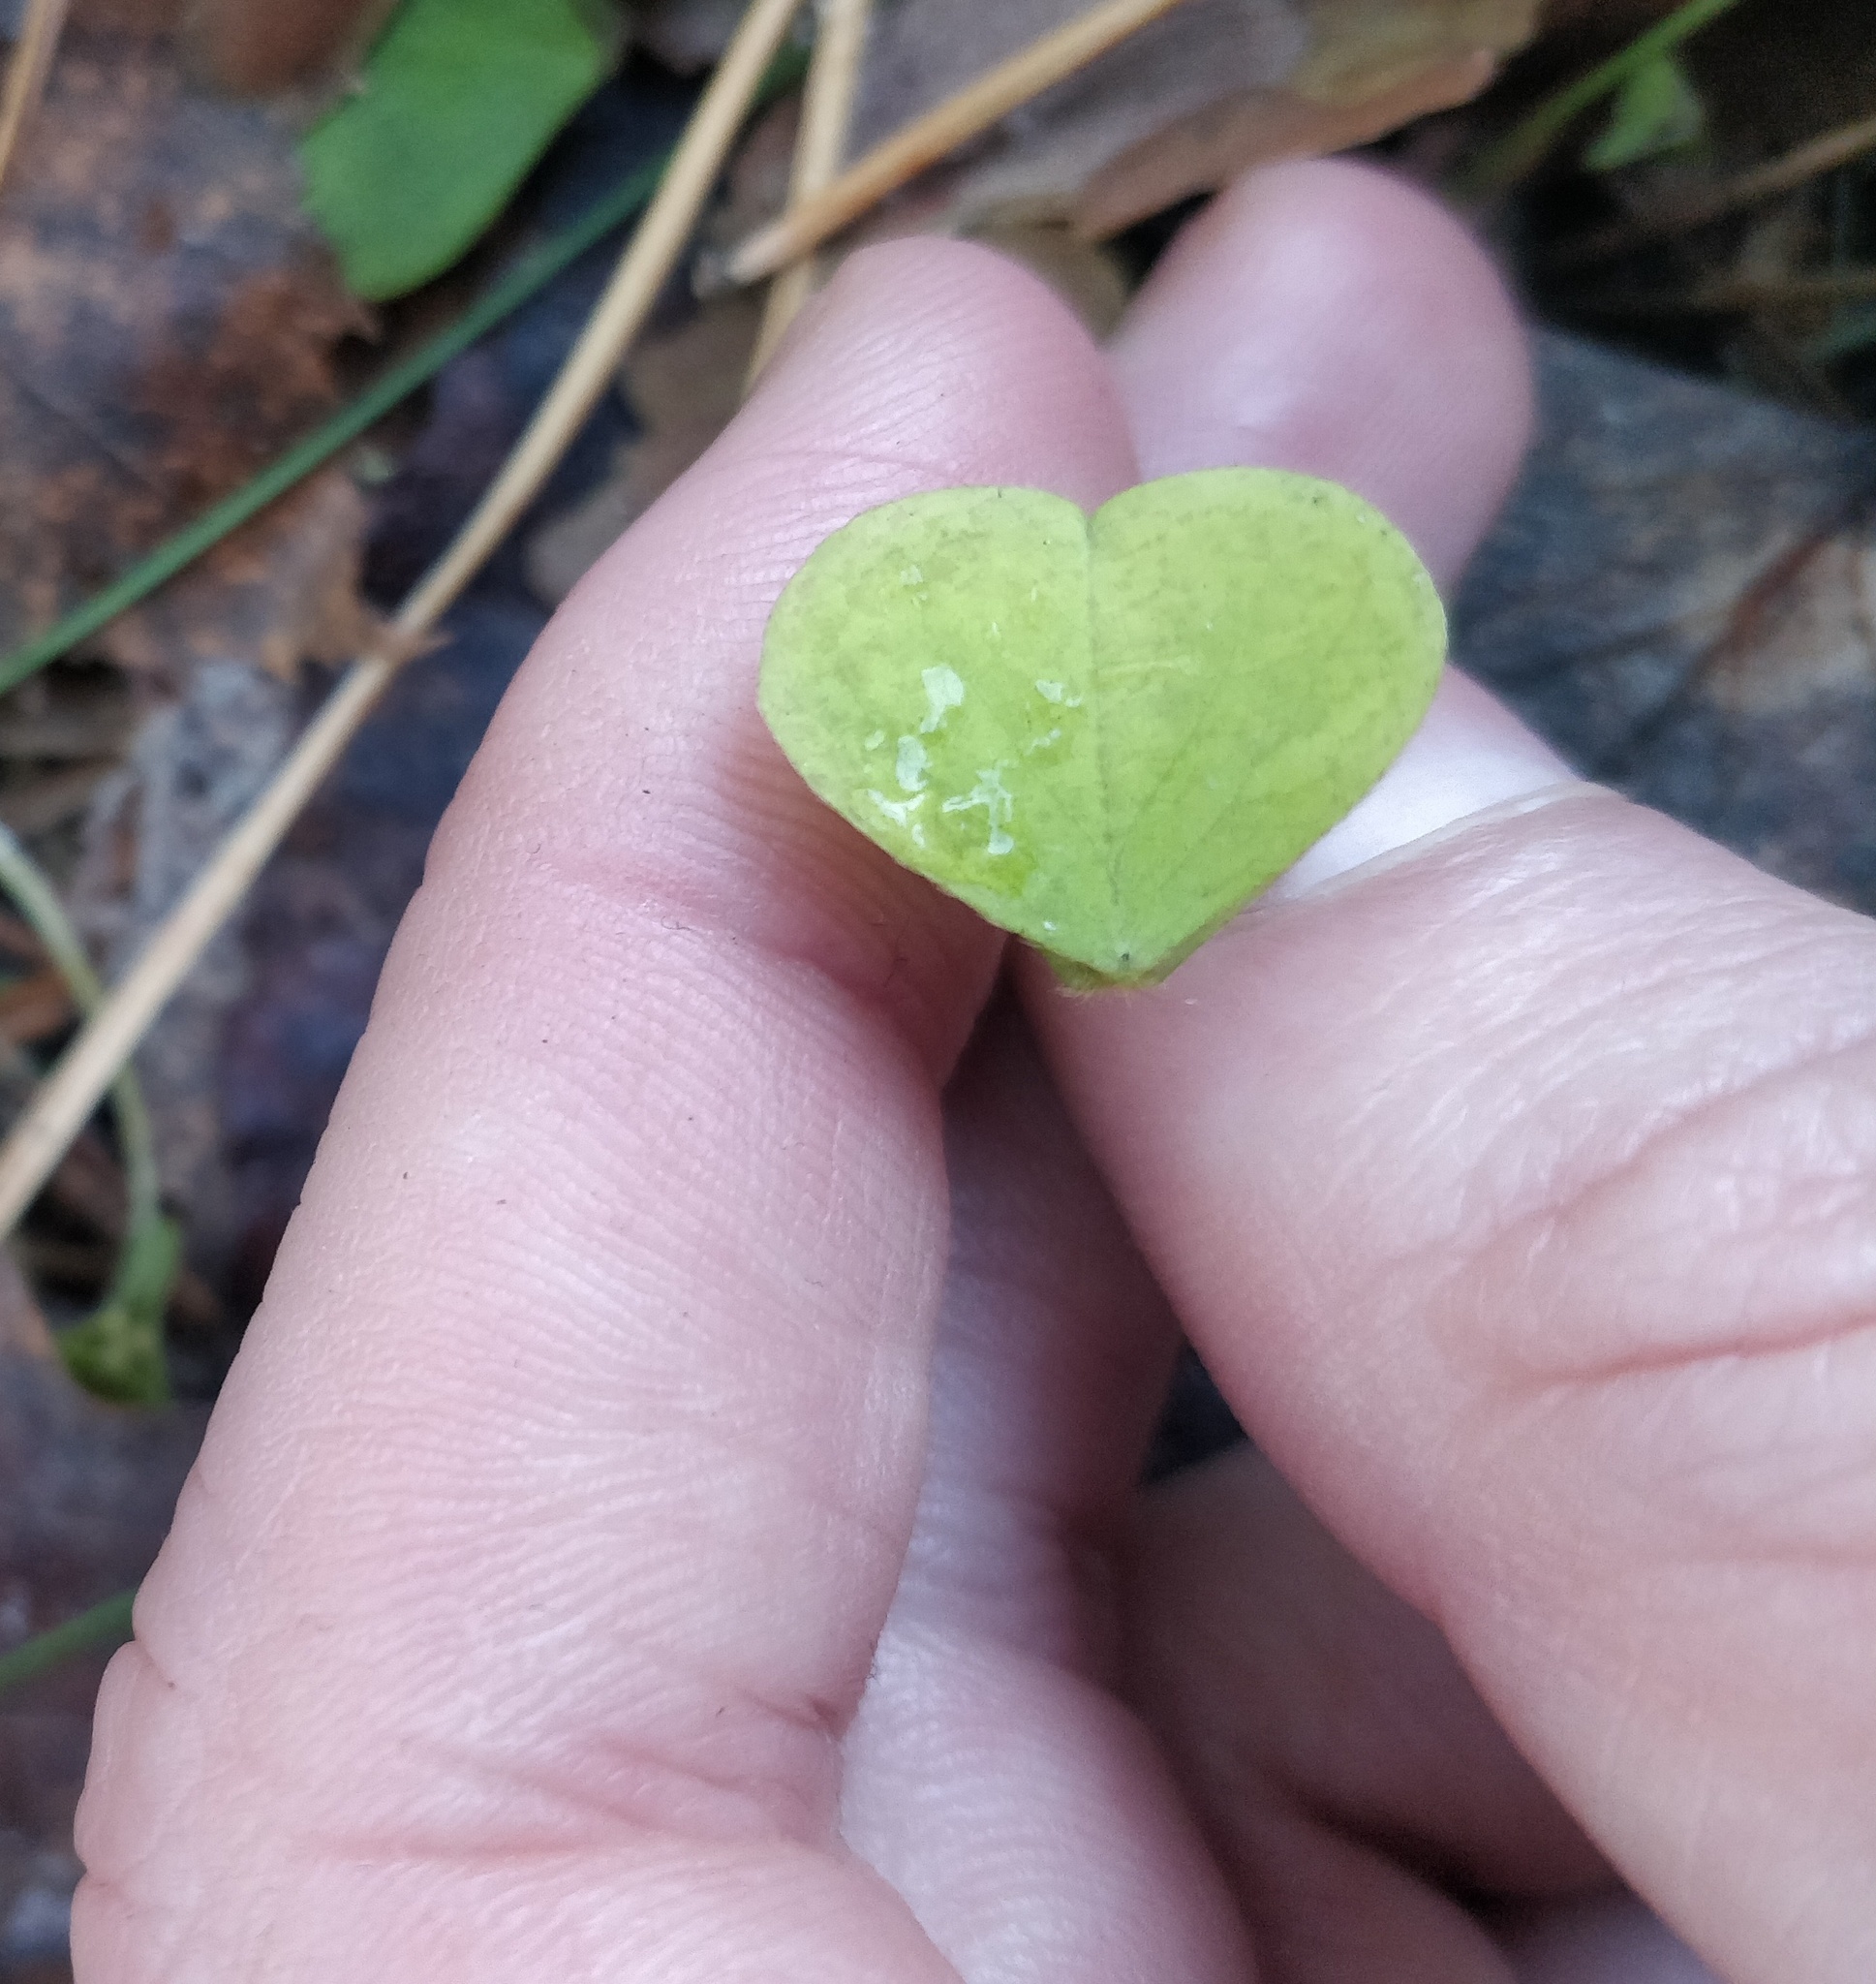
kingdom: Plantae
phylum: Tracheophyta
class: Magnoliopsida
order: Oxalidales
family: Oxalidaceae
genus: Oxalis
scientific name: Oxalis acetosella
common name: Wood-sorrel
